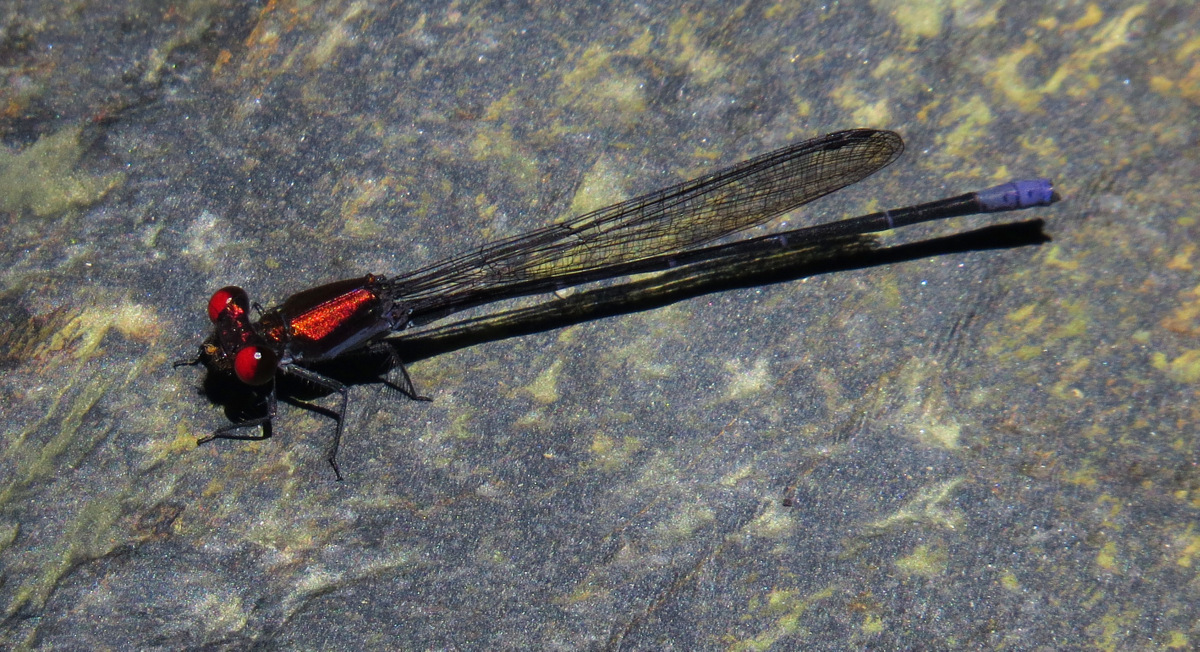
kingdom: Animalia
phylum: Arthropoda
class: Insecta
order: Odonata
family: Coenagrionidae
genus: Argia
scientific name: Argia orichalcea
